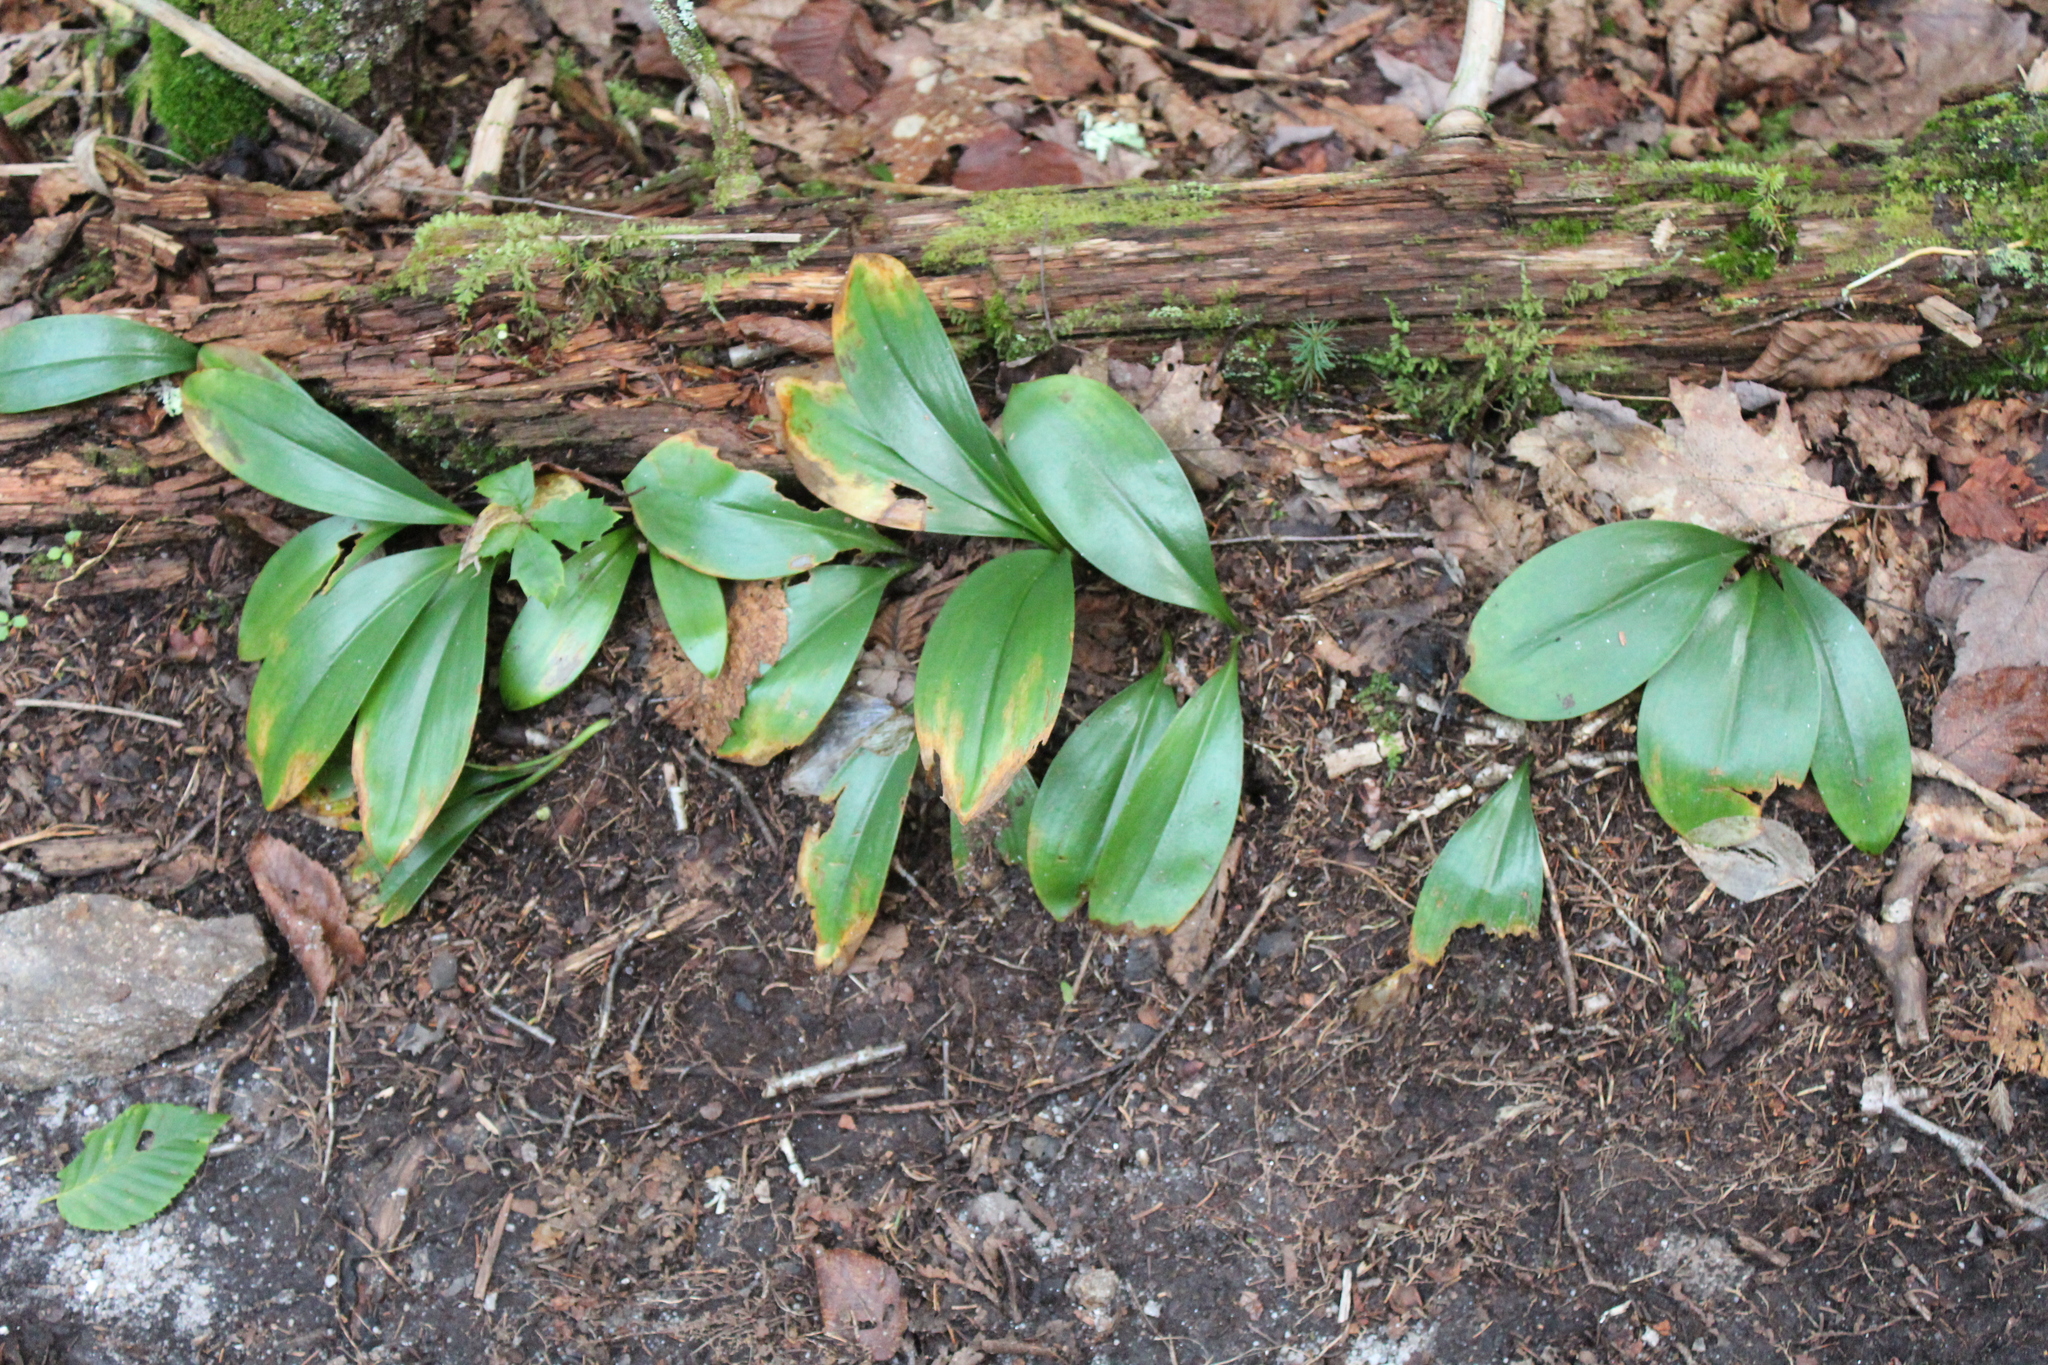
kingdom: Plantae
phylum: Tracheophyta
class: Liliopsida
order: Liliales
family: Liliaceae
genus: Clintonia
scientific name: Clintonia borealis
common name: Yellow clintonia
